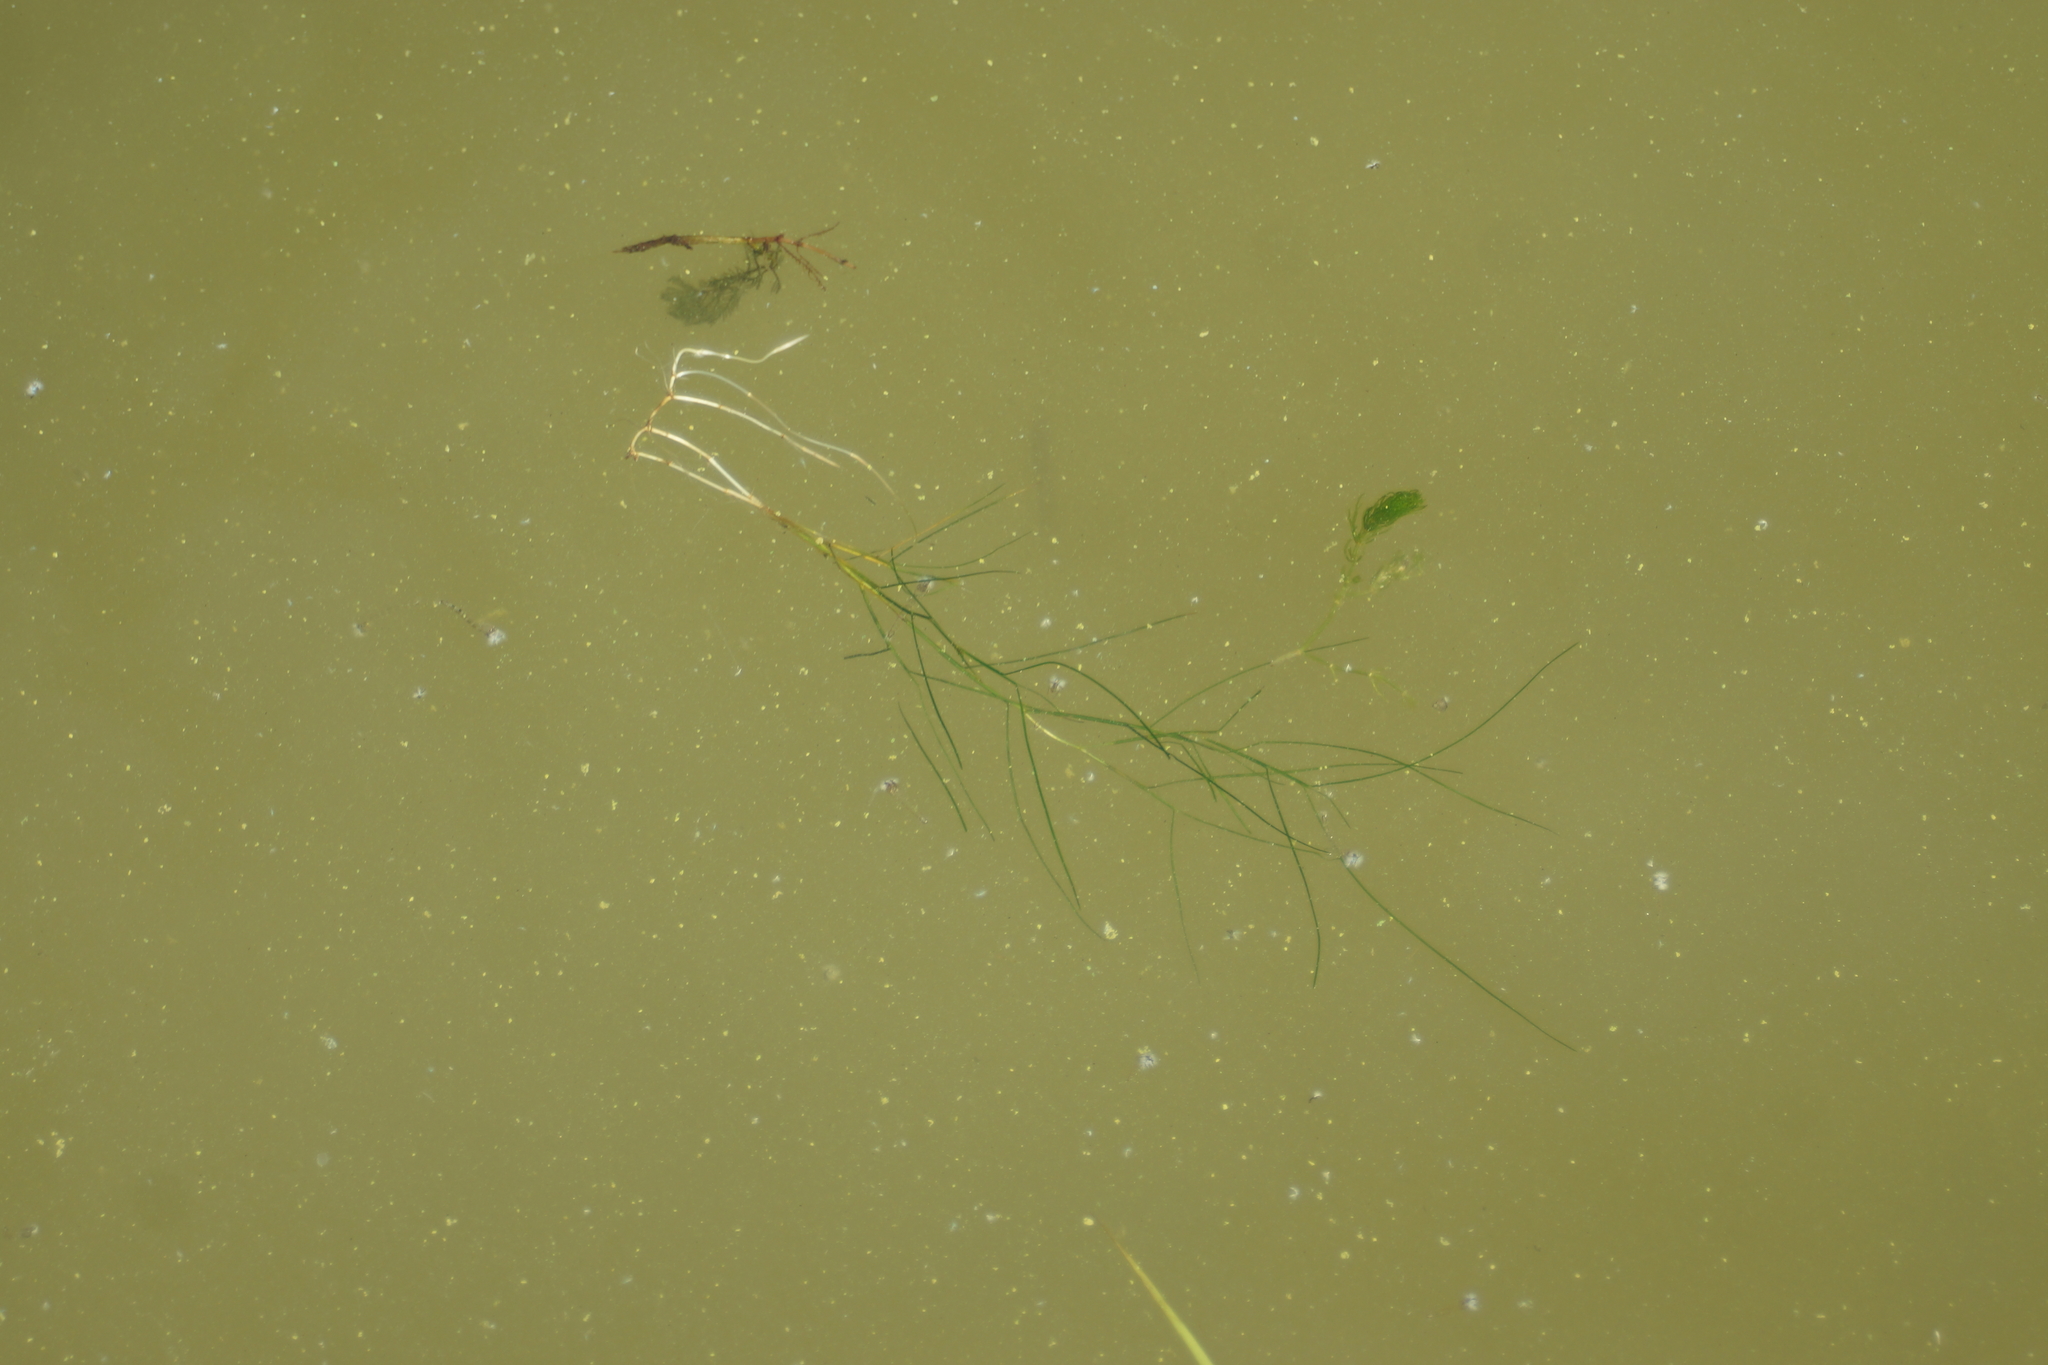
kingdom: Plantae
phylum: Tracheophyta
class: Liliopsida
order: Alismatales
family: Potamogetonaceae
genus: Stuckenia
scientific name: Stuckenia pectinata
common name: Sago pondweed
